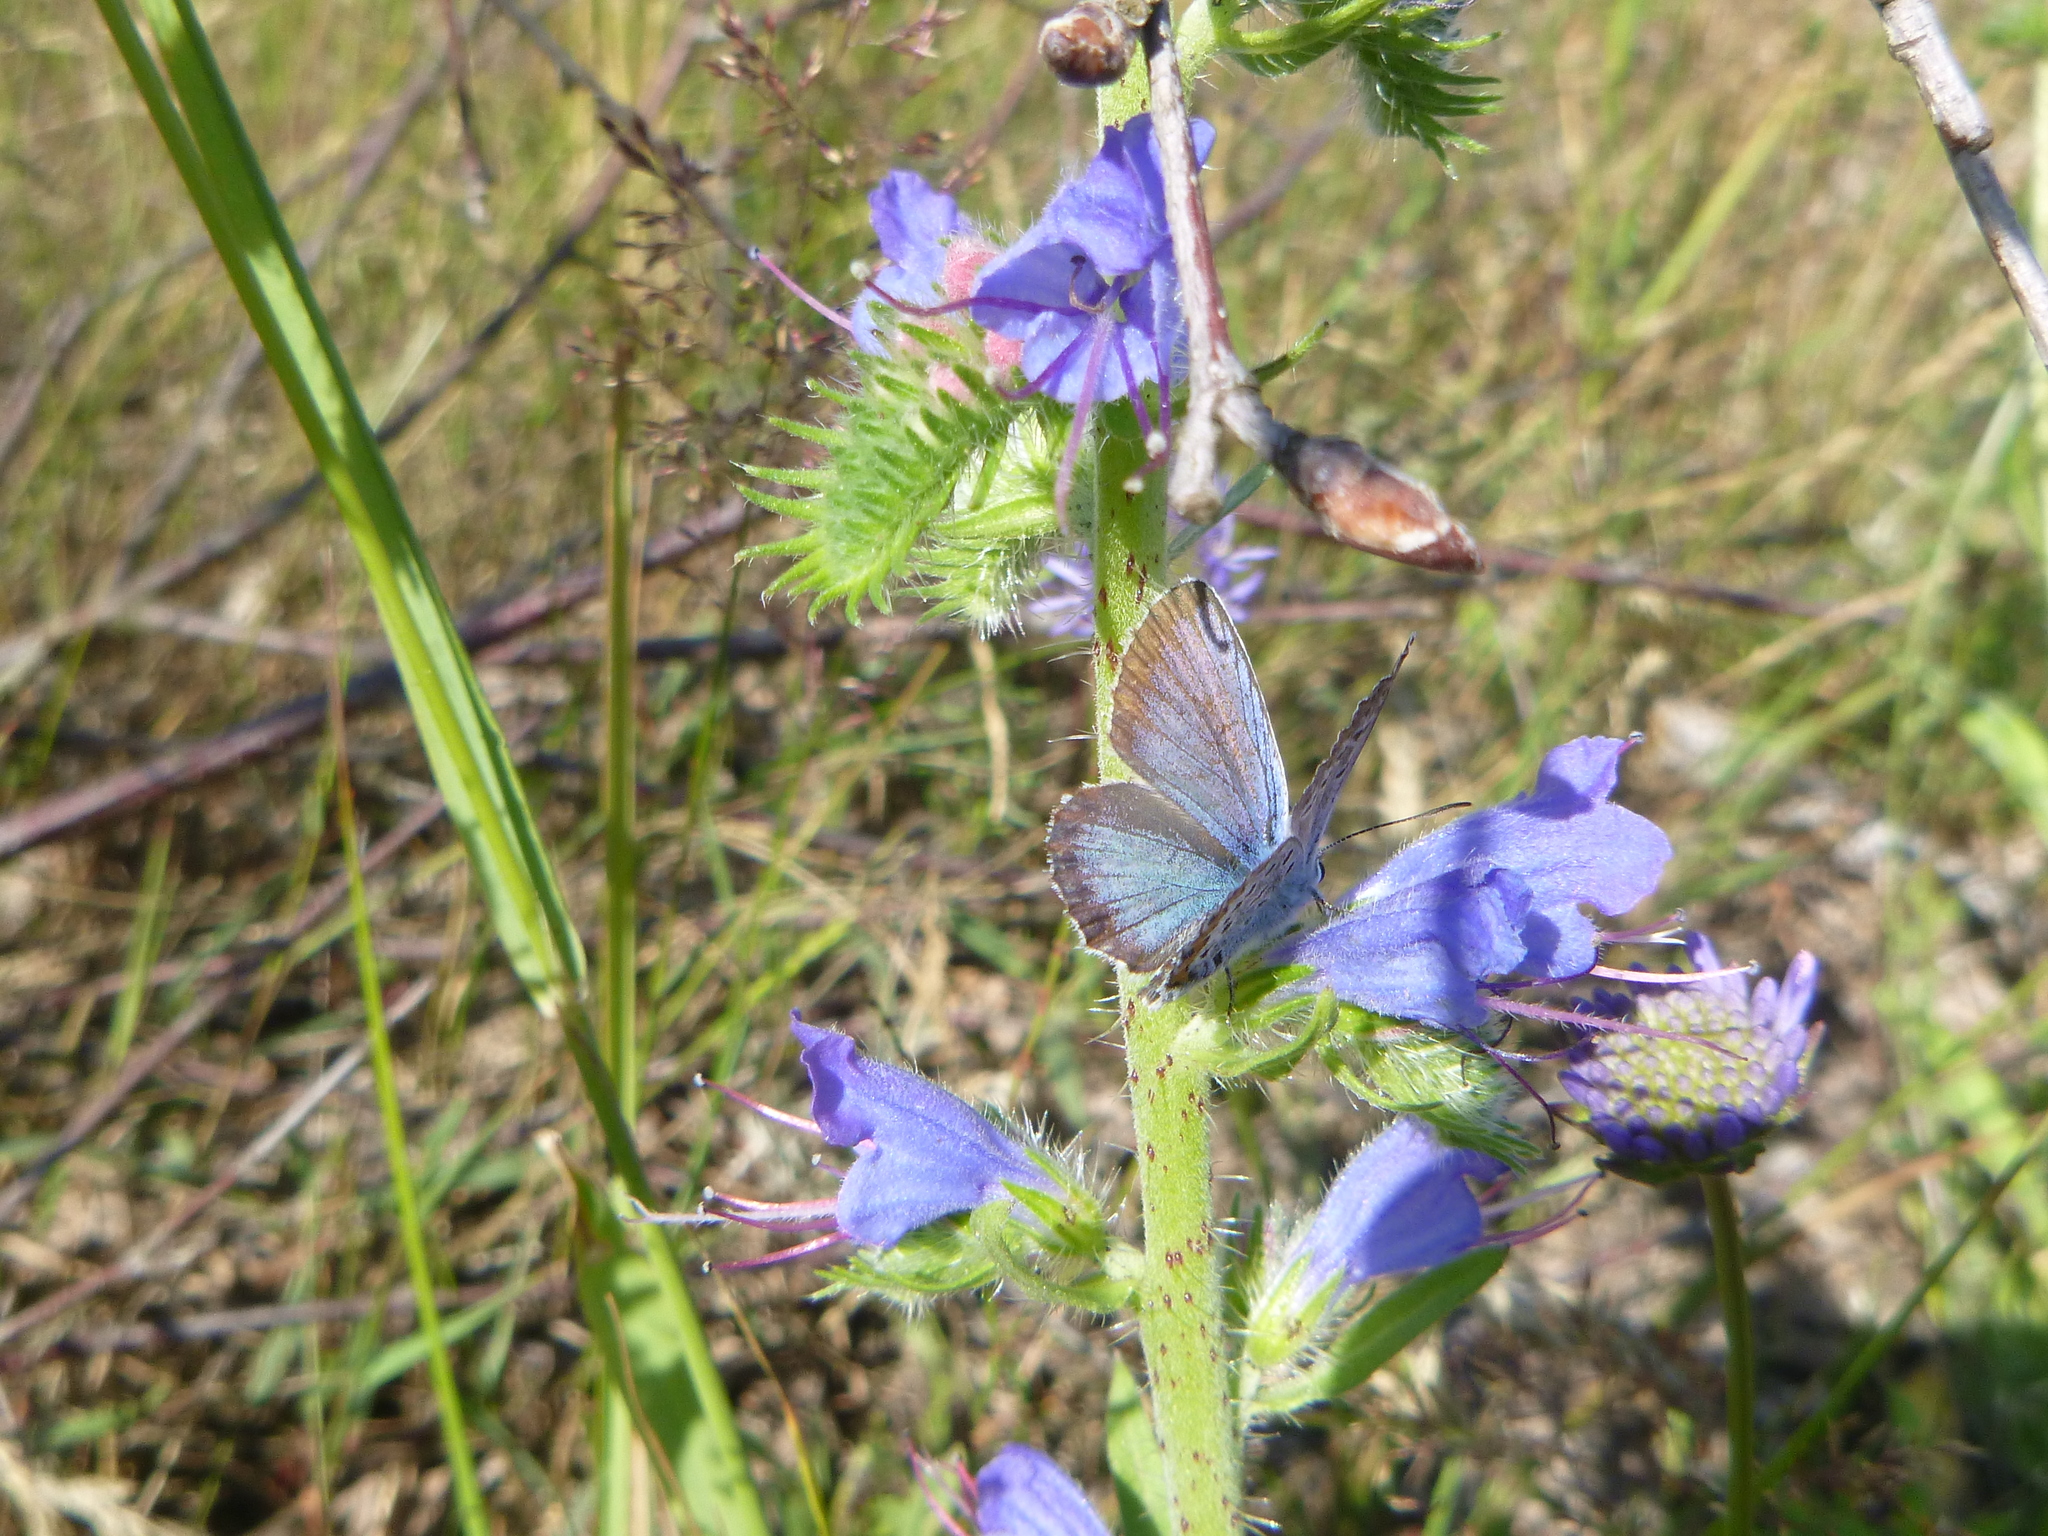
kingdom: Animalia
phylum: Arthropoda
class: Insecta
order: Lepidoptera
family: Lycaenidae
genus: Plebejus
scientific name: Plebejus argus
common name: Silver-studded blue
